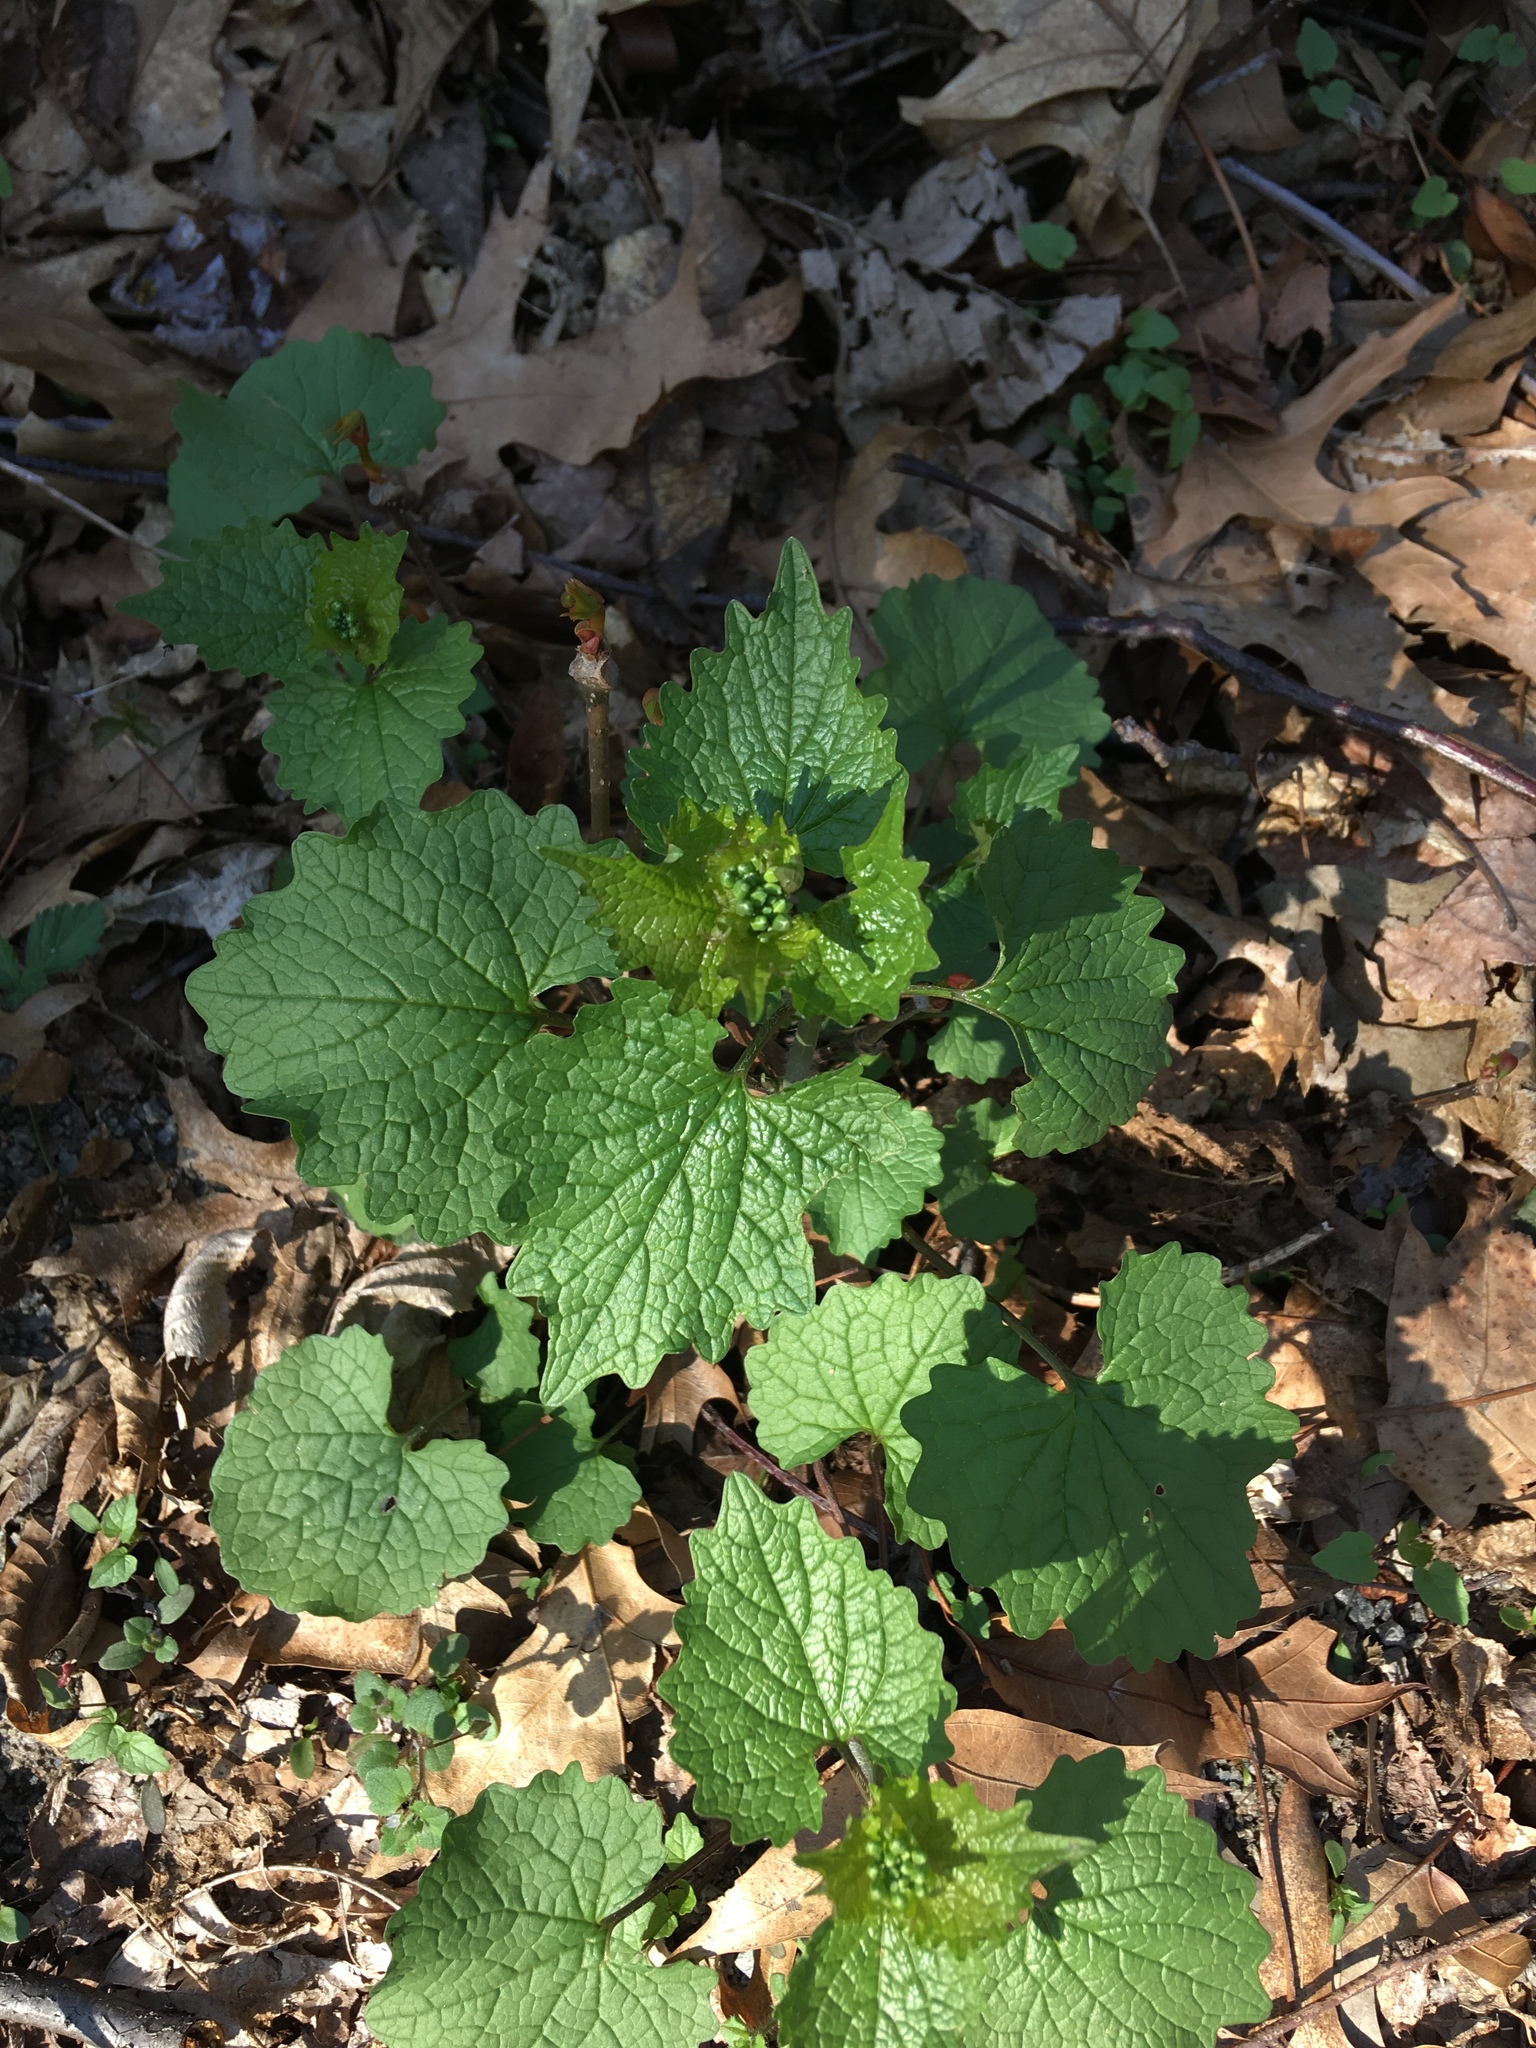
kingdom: Plantae
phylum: Tracheophyta
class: Magnoliopsida
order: Brassicales
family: Brassicaceae
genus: Alliaria
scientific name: Alliaria petiolata
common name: Garlic mustard
